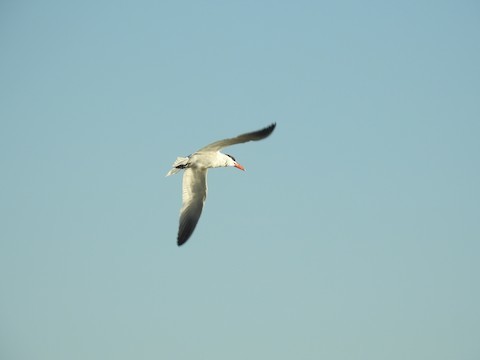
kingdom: Animalia
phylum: Chordata
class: Aves
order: Charadriiformes
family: Laridae
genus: Hydroprogne
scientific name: Hydroprogne caspia
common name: Caspian tern
